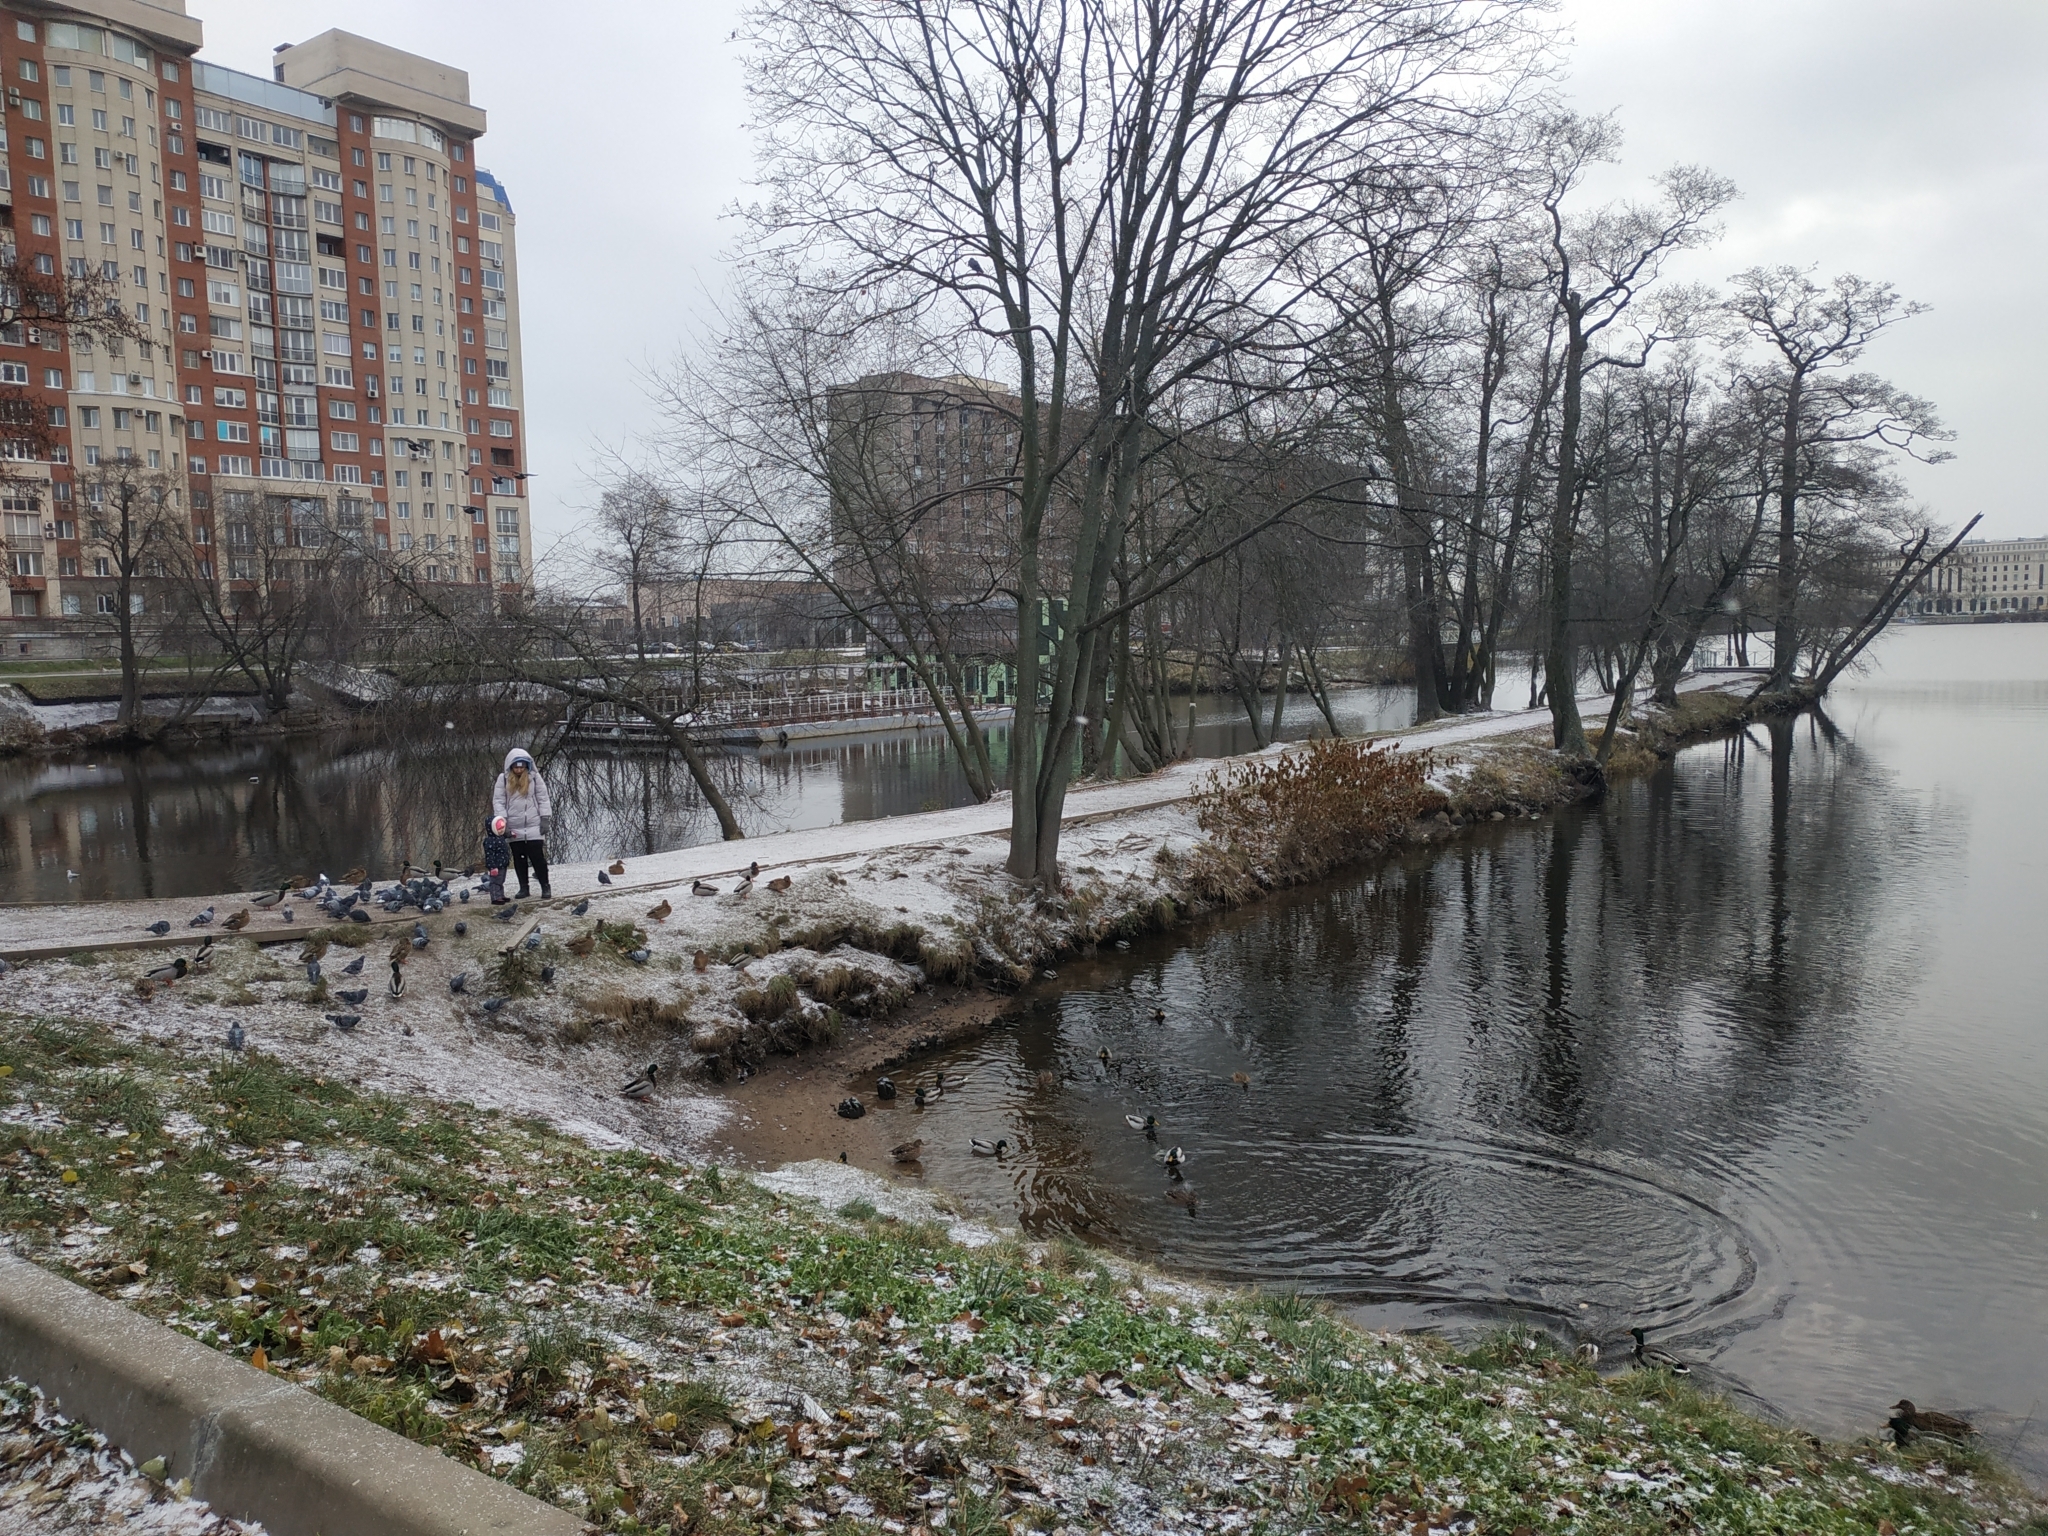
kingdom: Animalia
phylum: Chordata
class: Aves
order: Columbiformes
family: Columbidae
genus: Columba
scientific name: Columba livia
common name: Rock pigeon
